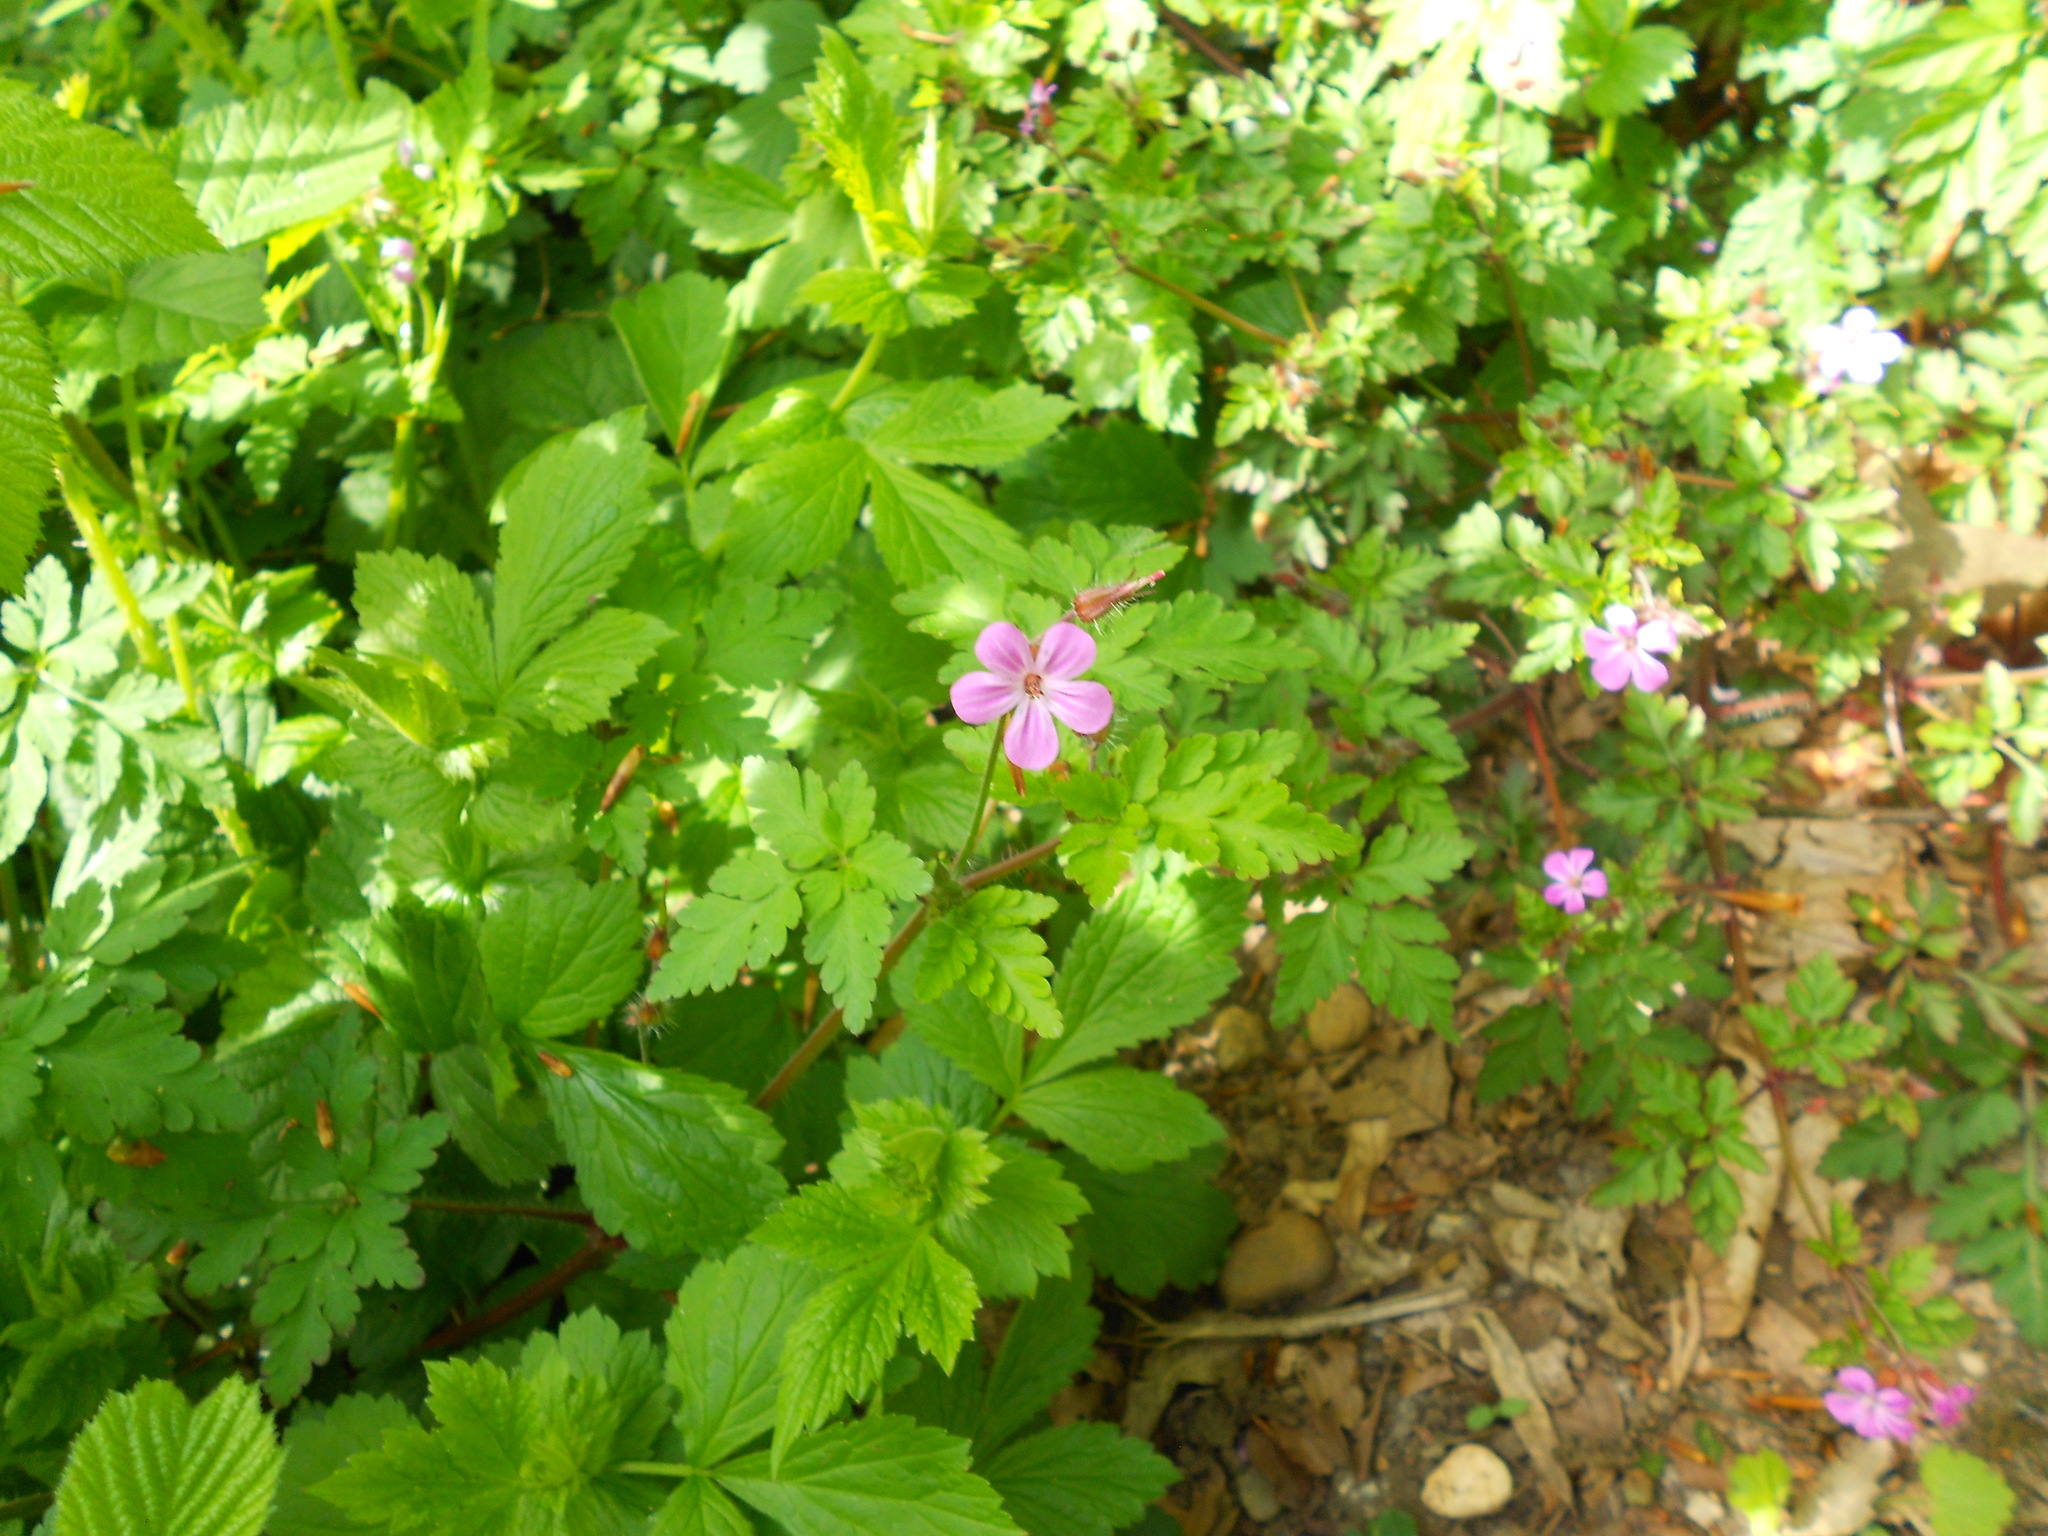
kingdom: Plantae
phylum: Tracheophyta
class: Magnoliopsida
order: Geraniales
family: Geraniaceae
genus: Geranium
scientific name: Geranium robertianum
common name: Herb-robert
